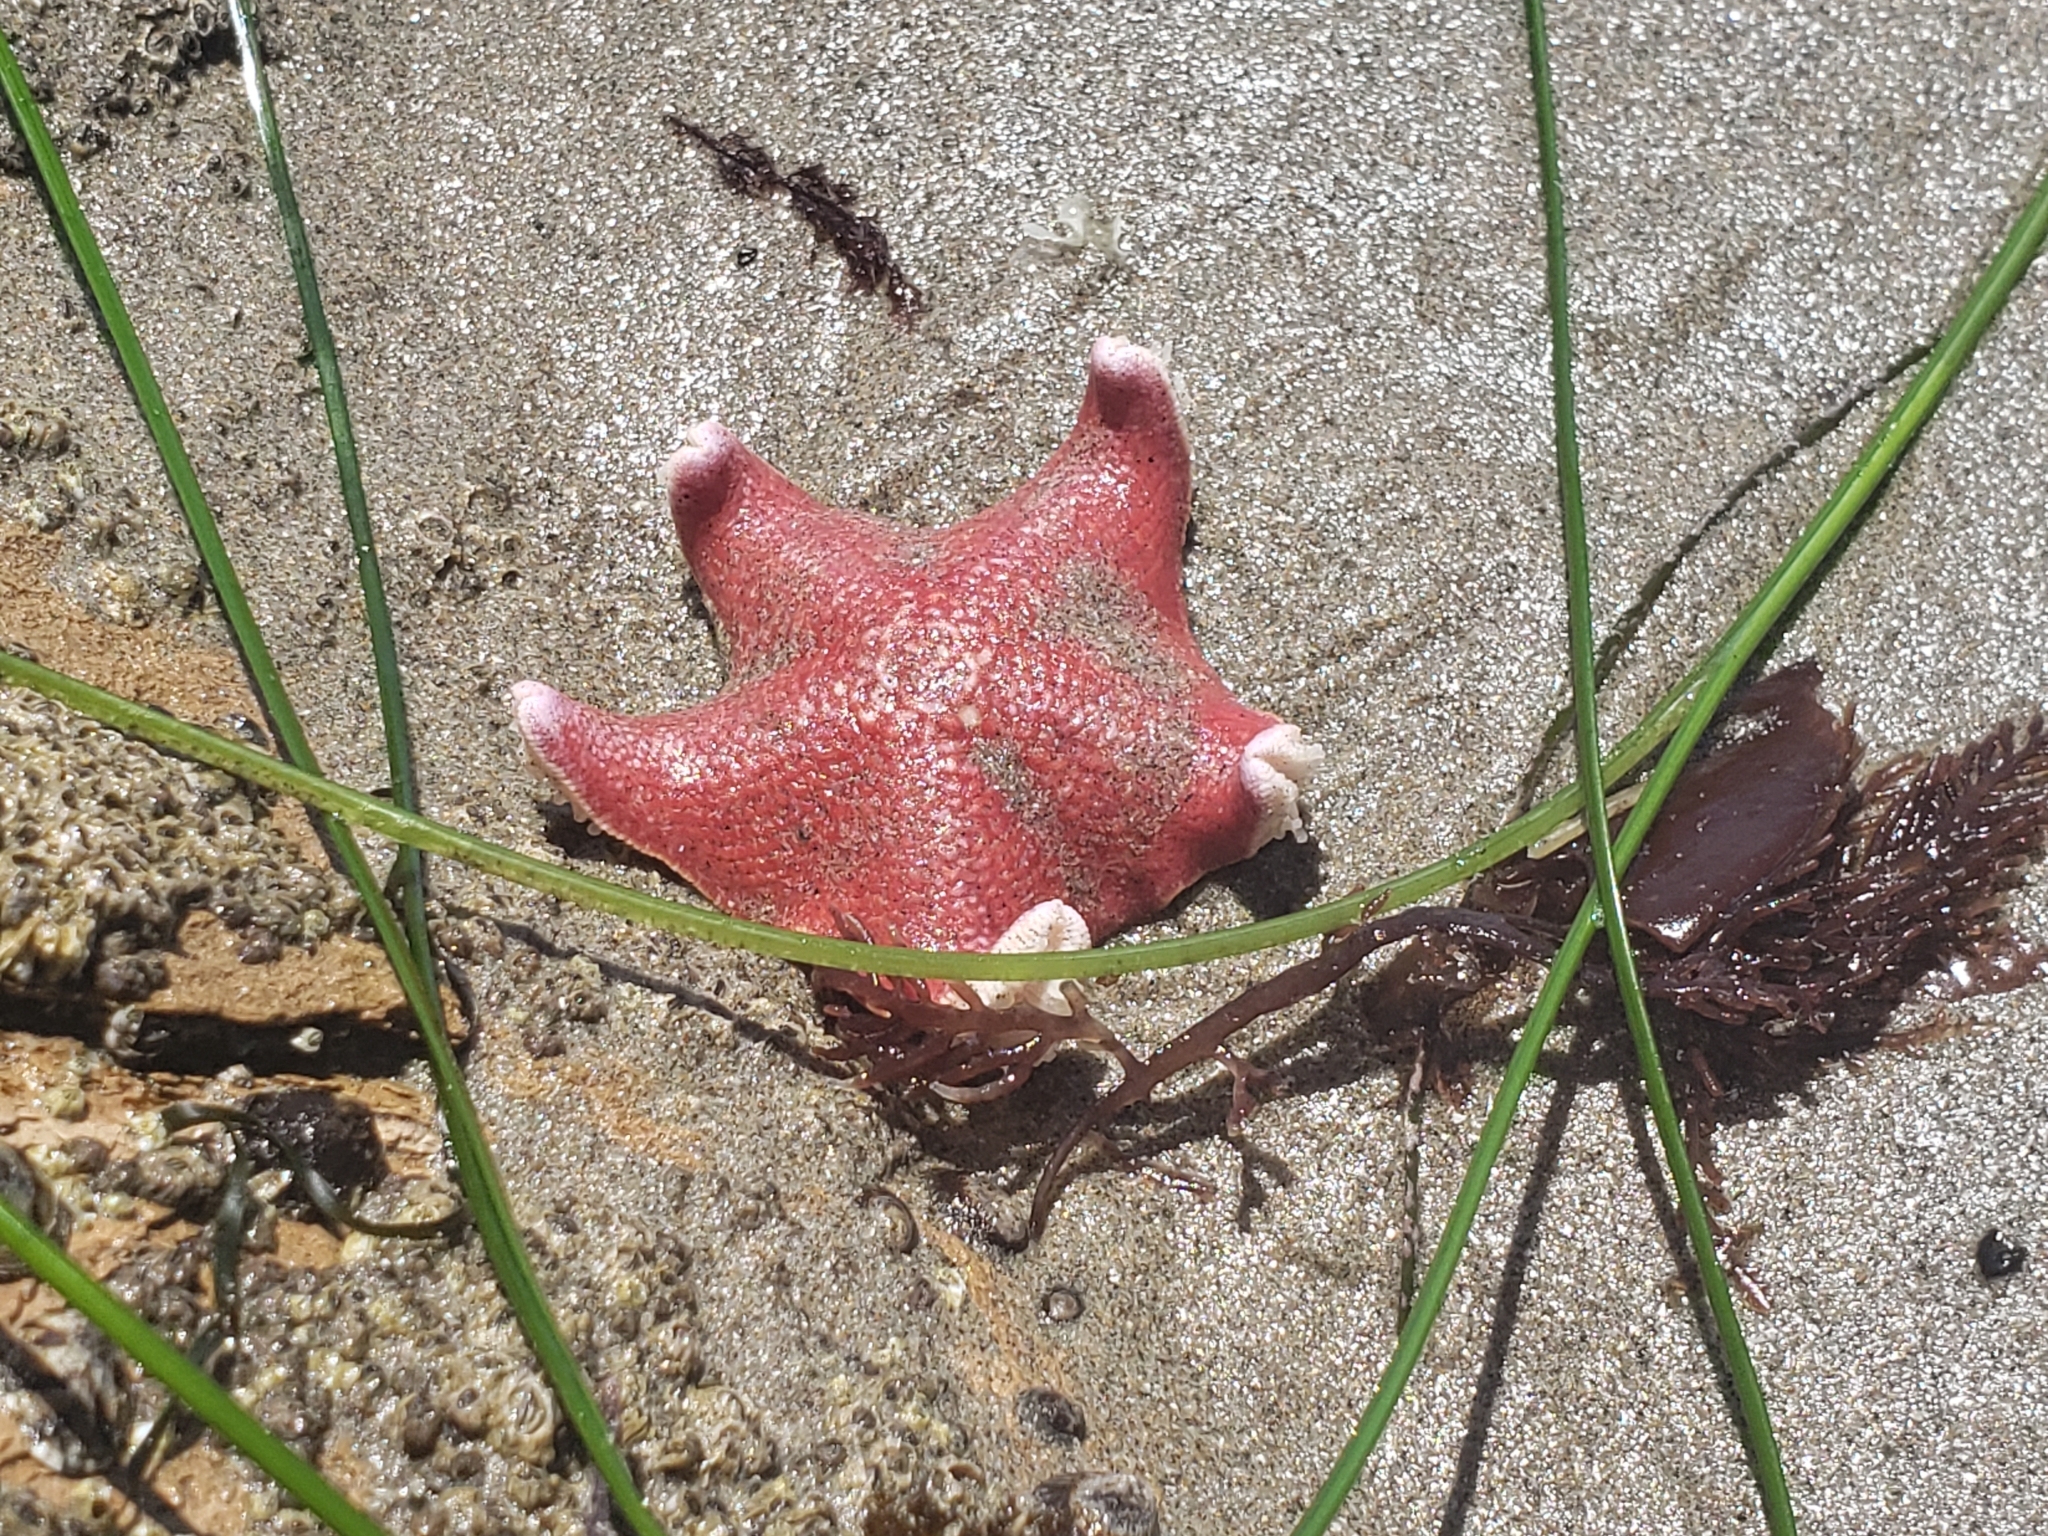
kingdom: Animalia
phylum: Echinodermata
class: Asteroidea
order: Valvatida
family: Asterinidae
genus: Patiria
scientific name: Patiria miniata
